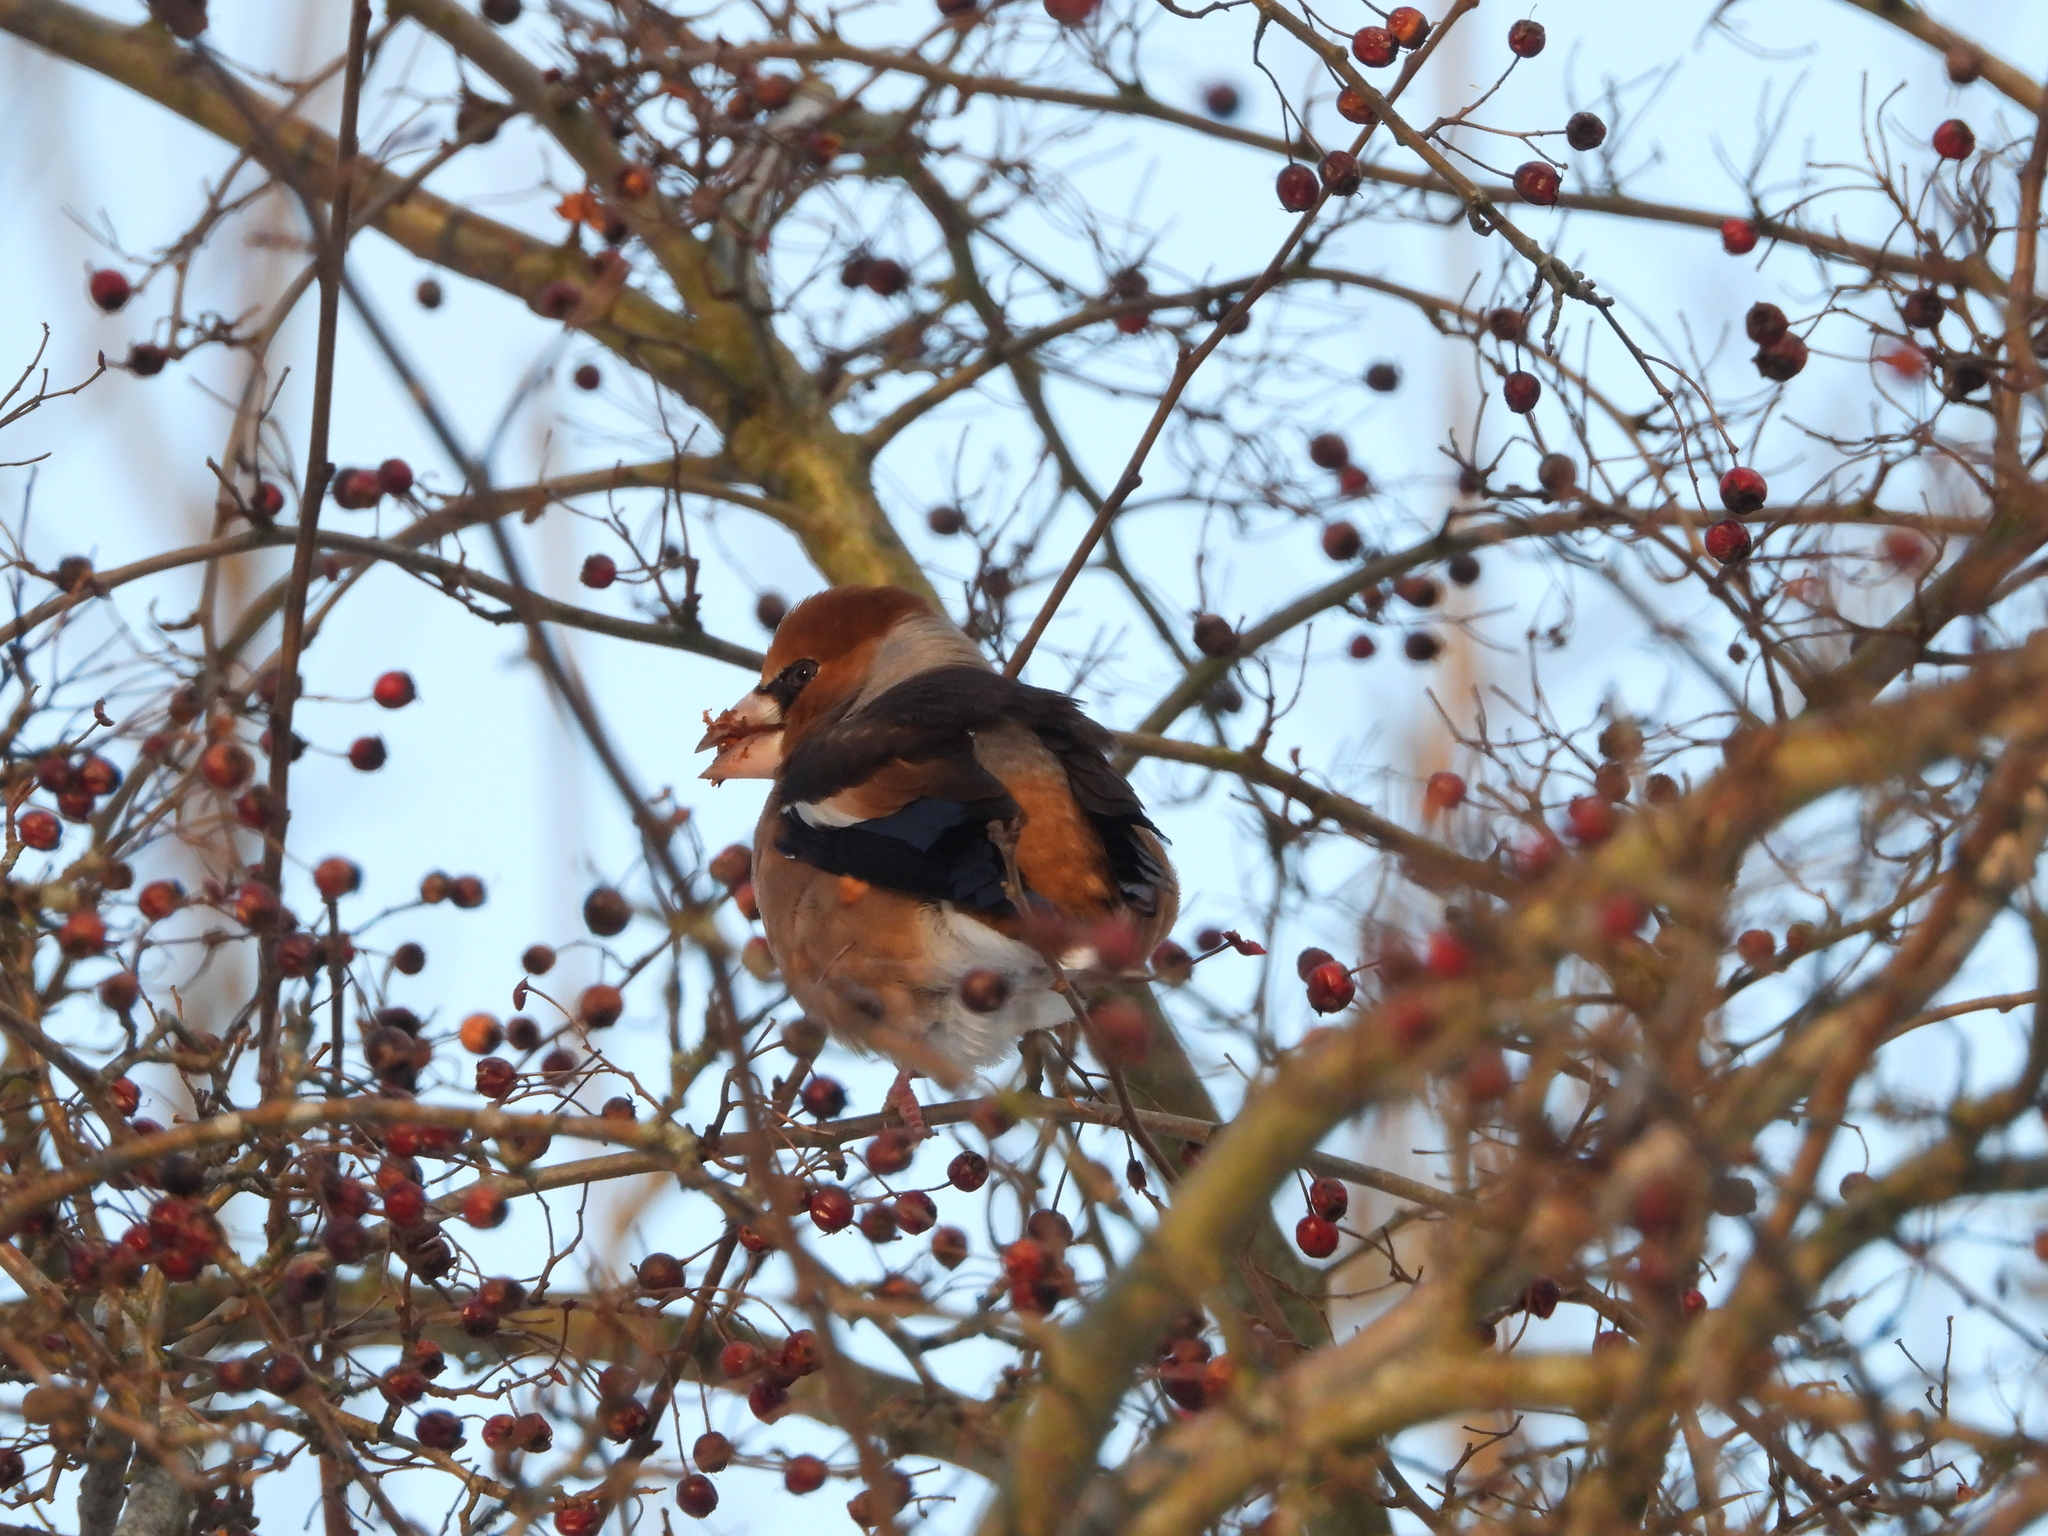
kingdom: Animalia
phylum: Chordata
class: Aves
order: Passeriformes
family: Fringillidae
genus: Coccothraustes
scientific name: Coccothraustes coccothraustes
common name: Hawfinch
